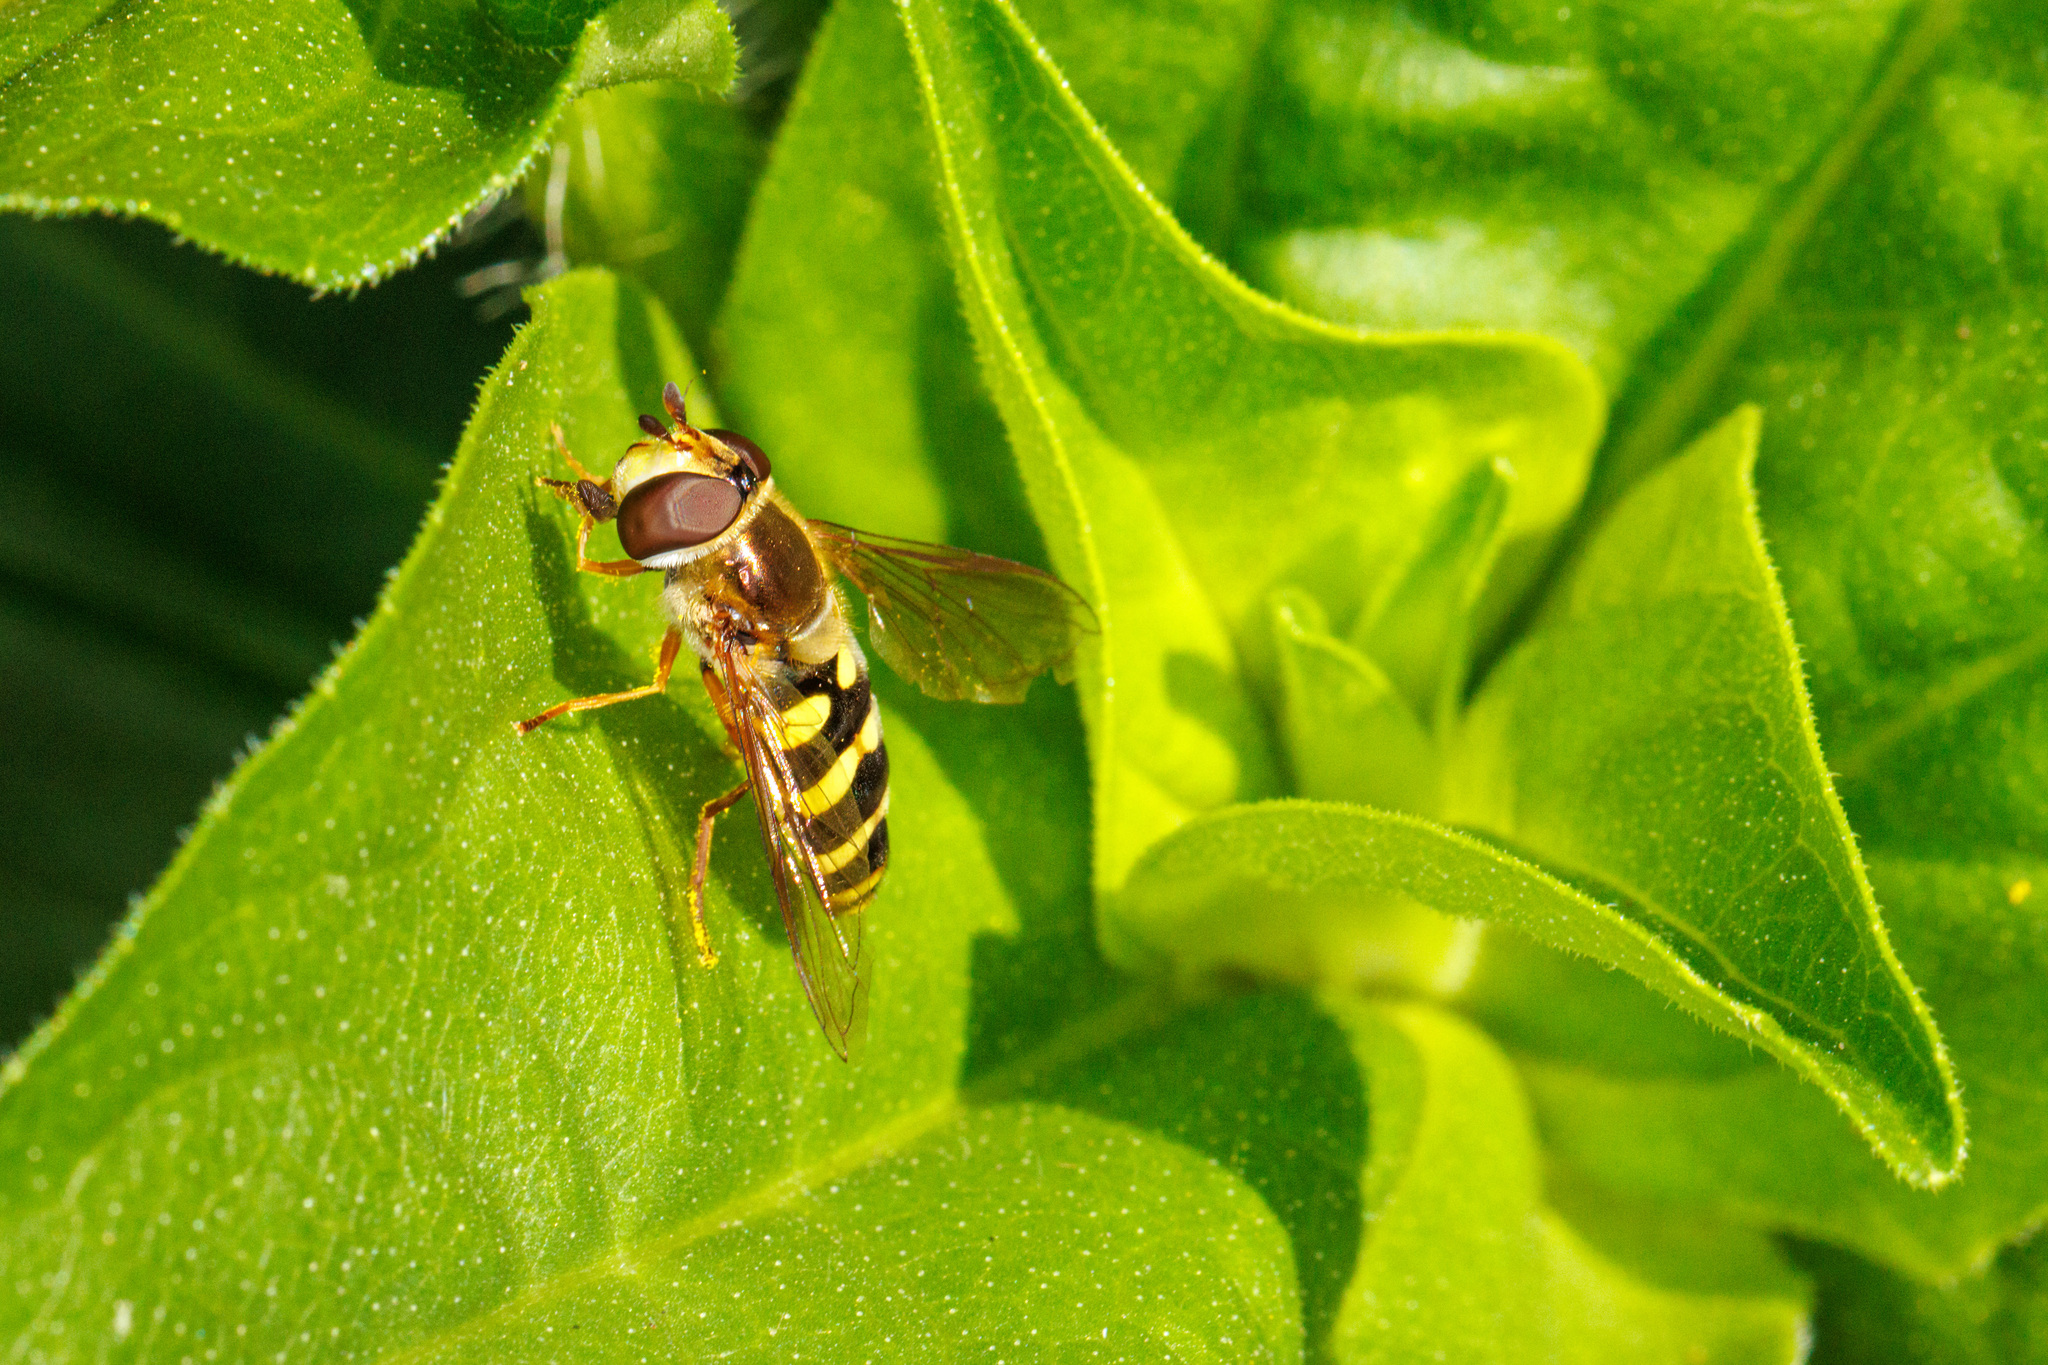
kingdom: Animalia
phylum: Arthropoda
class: Insecta
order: Diptera
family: Syrphidae
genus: Eupeodes
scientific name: Eupeodes fumipennis
